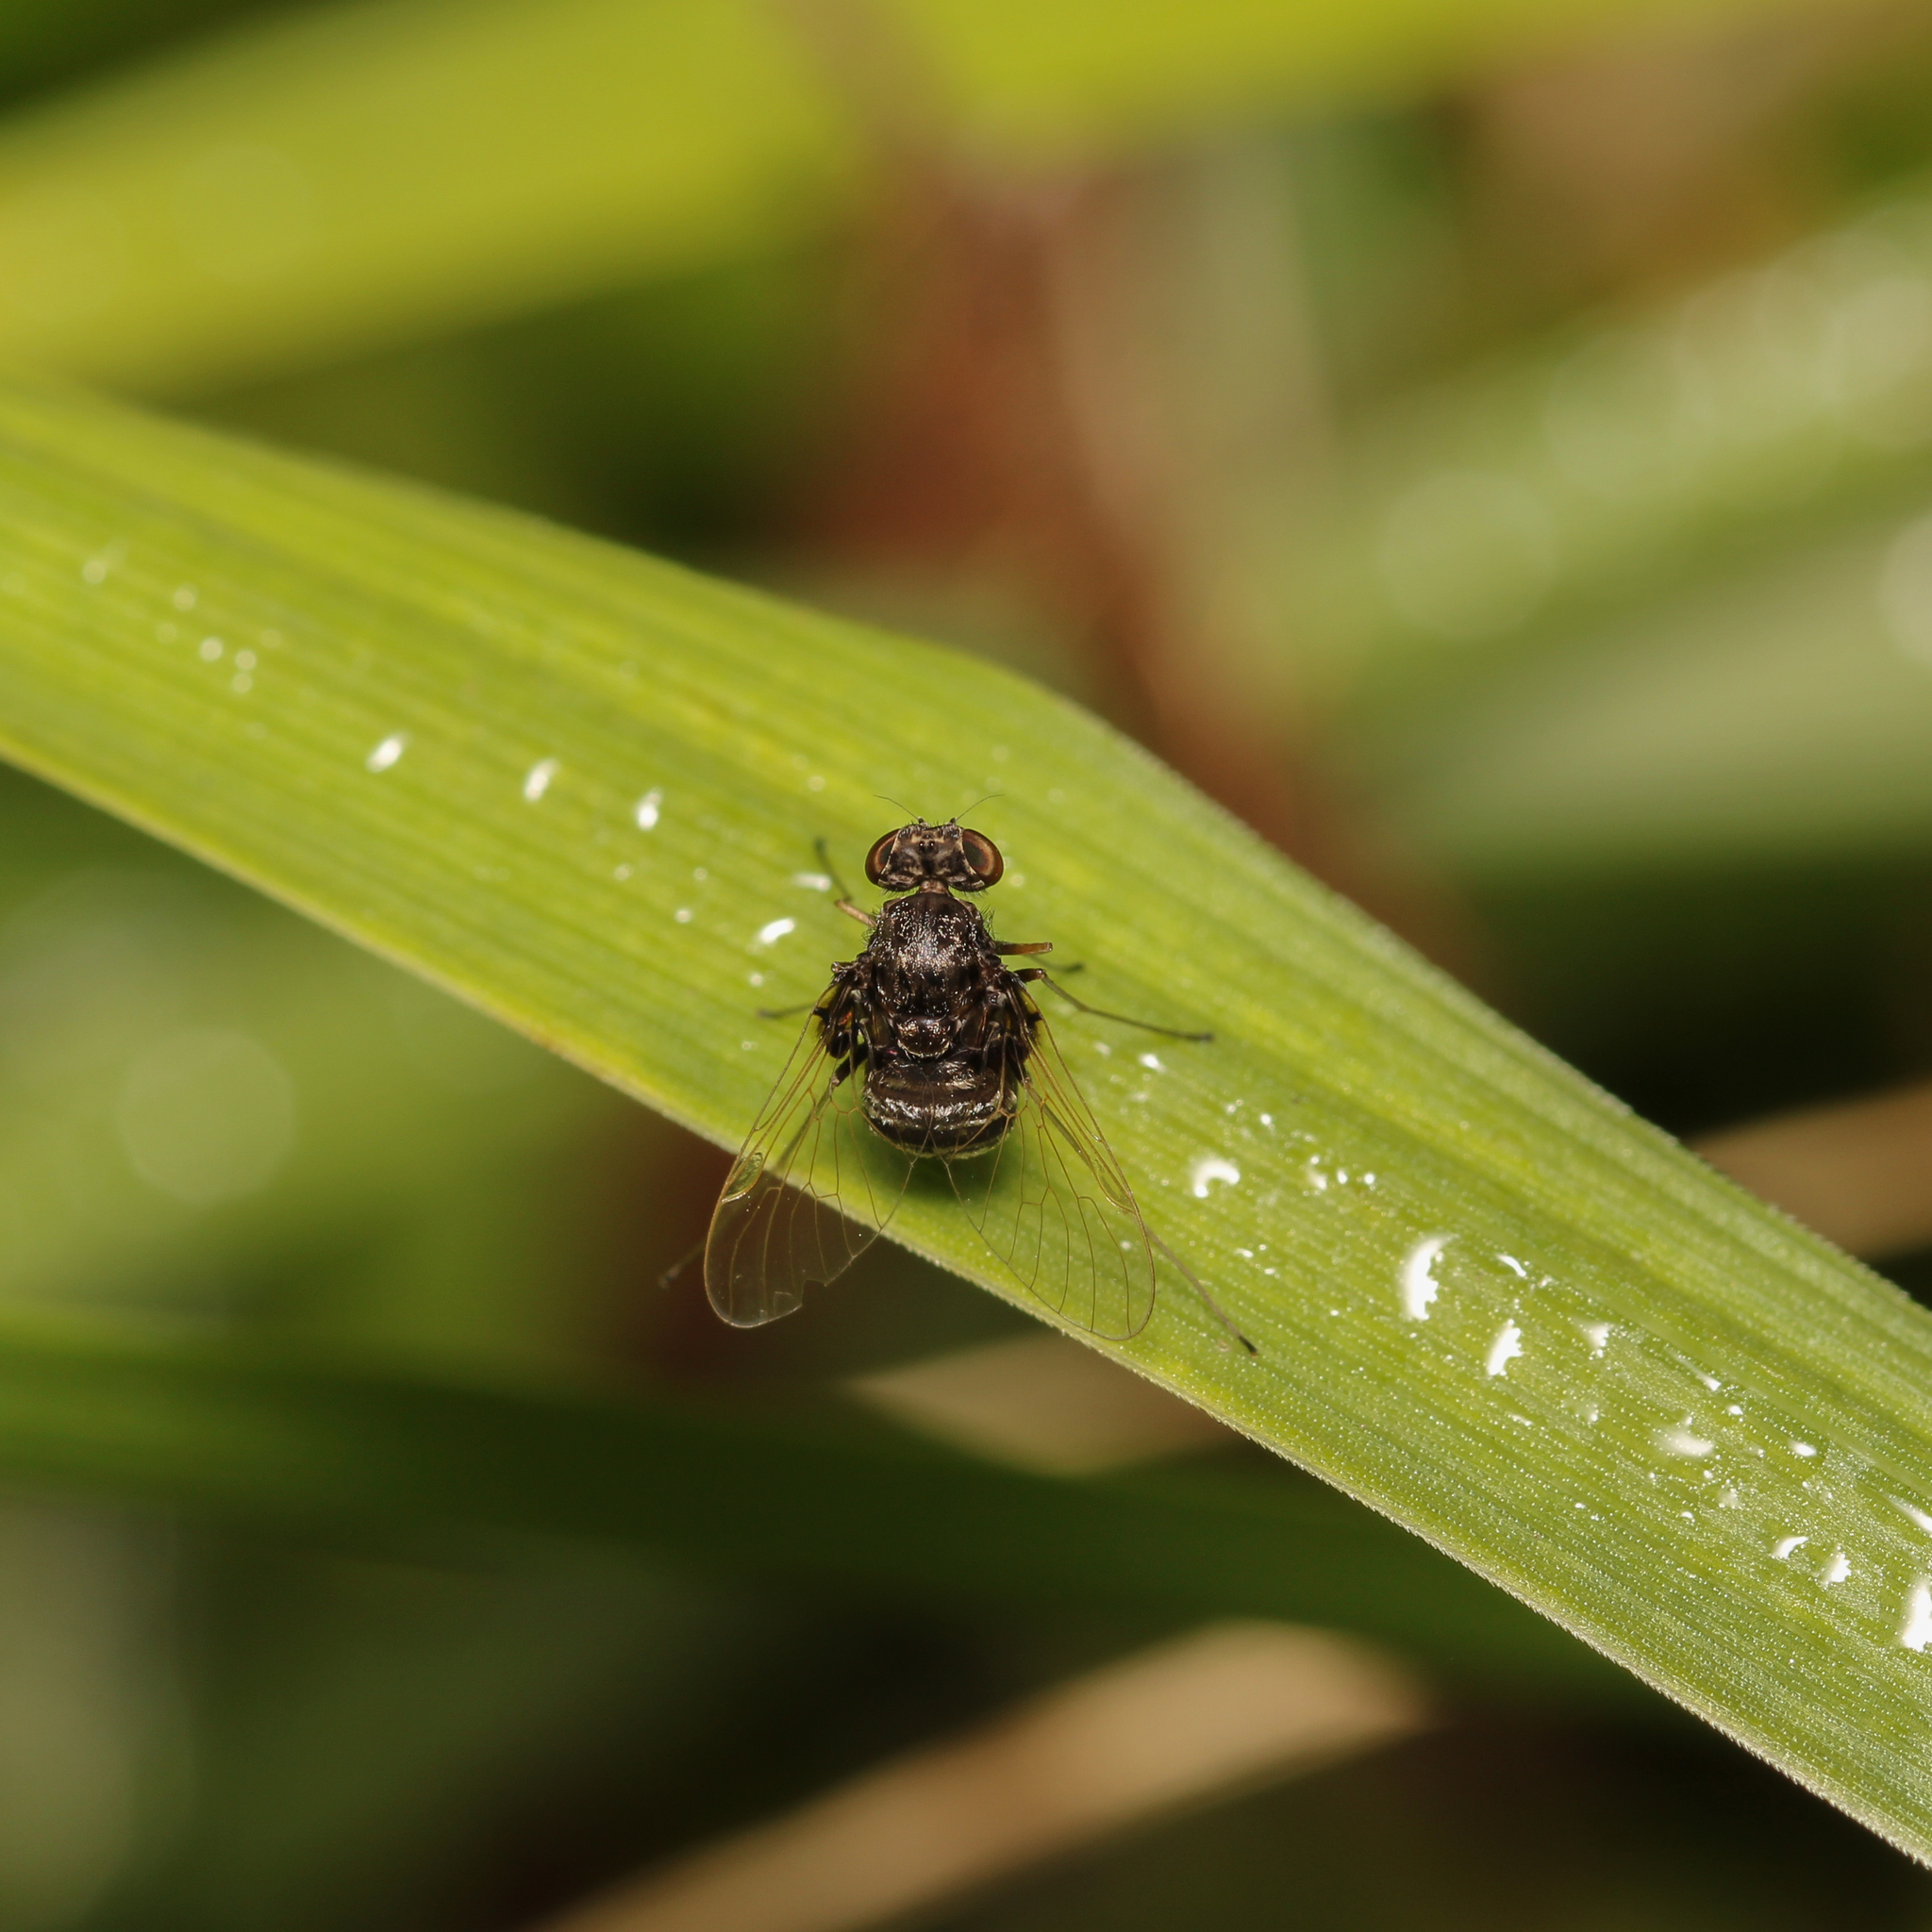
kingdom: Animalia
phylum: Arthropoda
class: Insecta
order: Diptera
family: Rhagionidae
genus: Chrysopilus
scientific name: Chrysopilus basilaris
